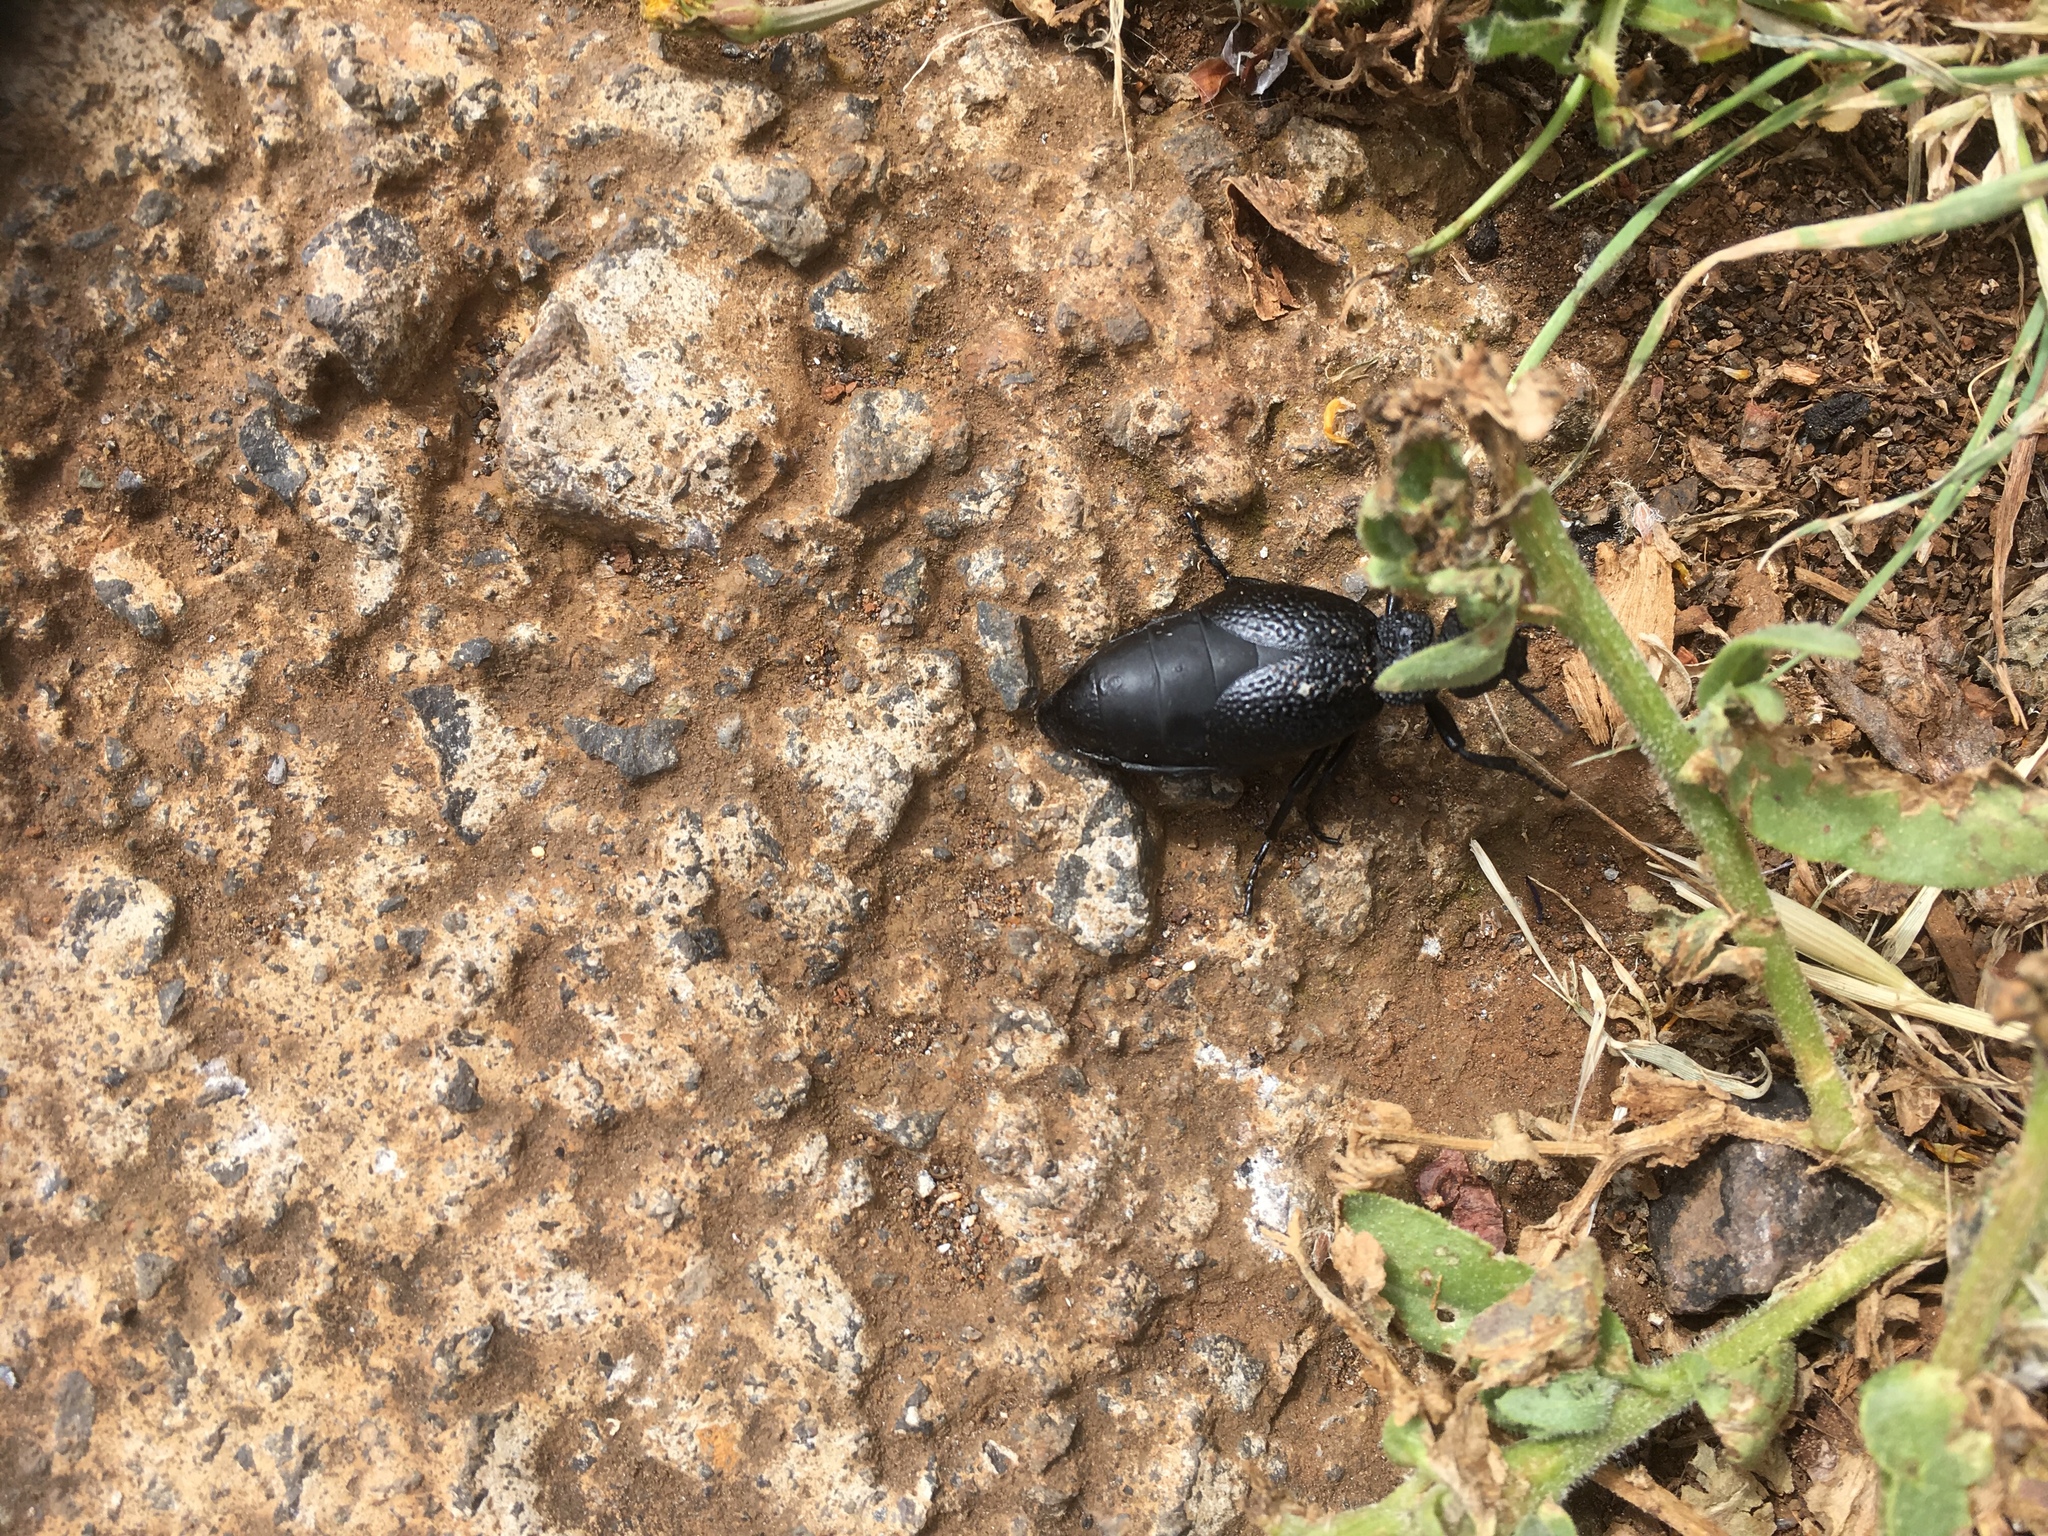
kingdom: Animalia
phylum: Arthropoda
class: Insecta
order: Coleoptera
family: Meloidae
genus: Meloe
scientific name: Meloe tuccius
